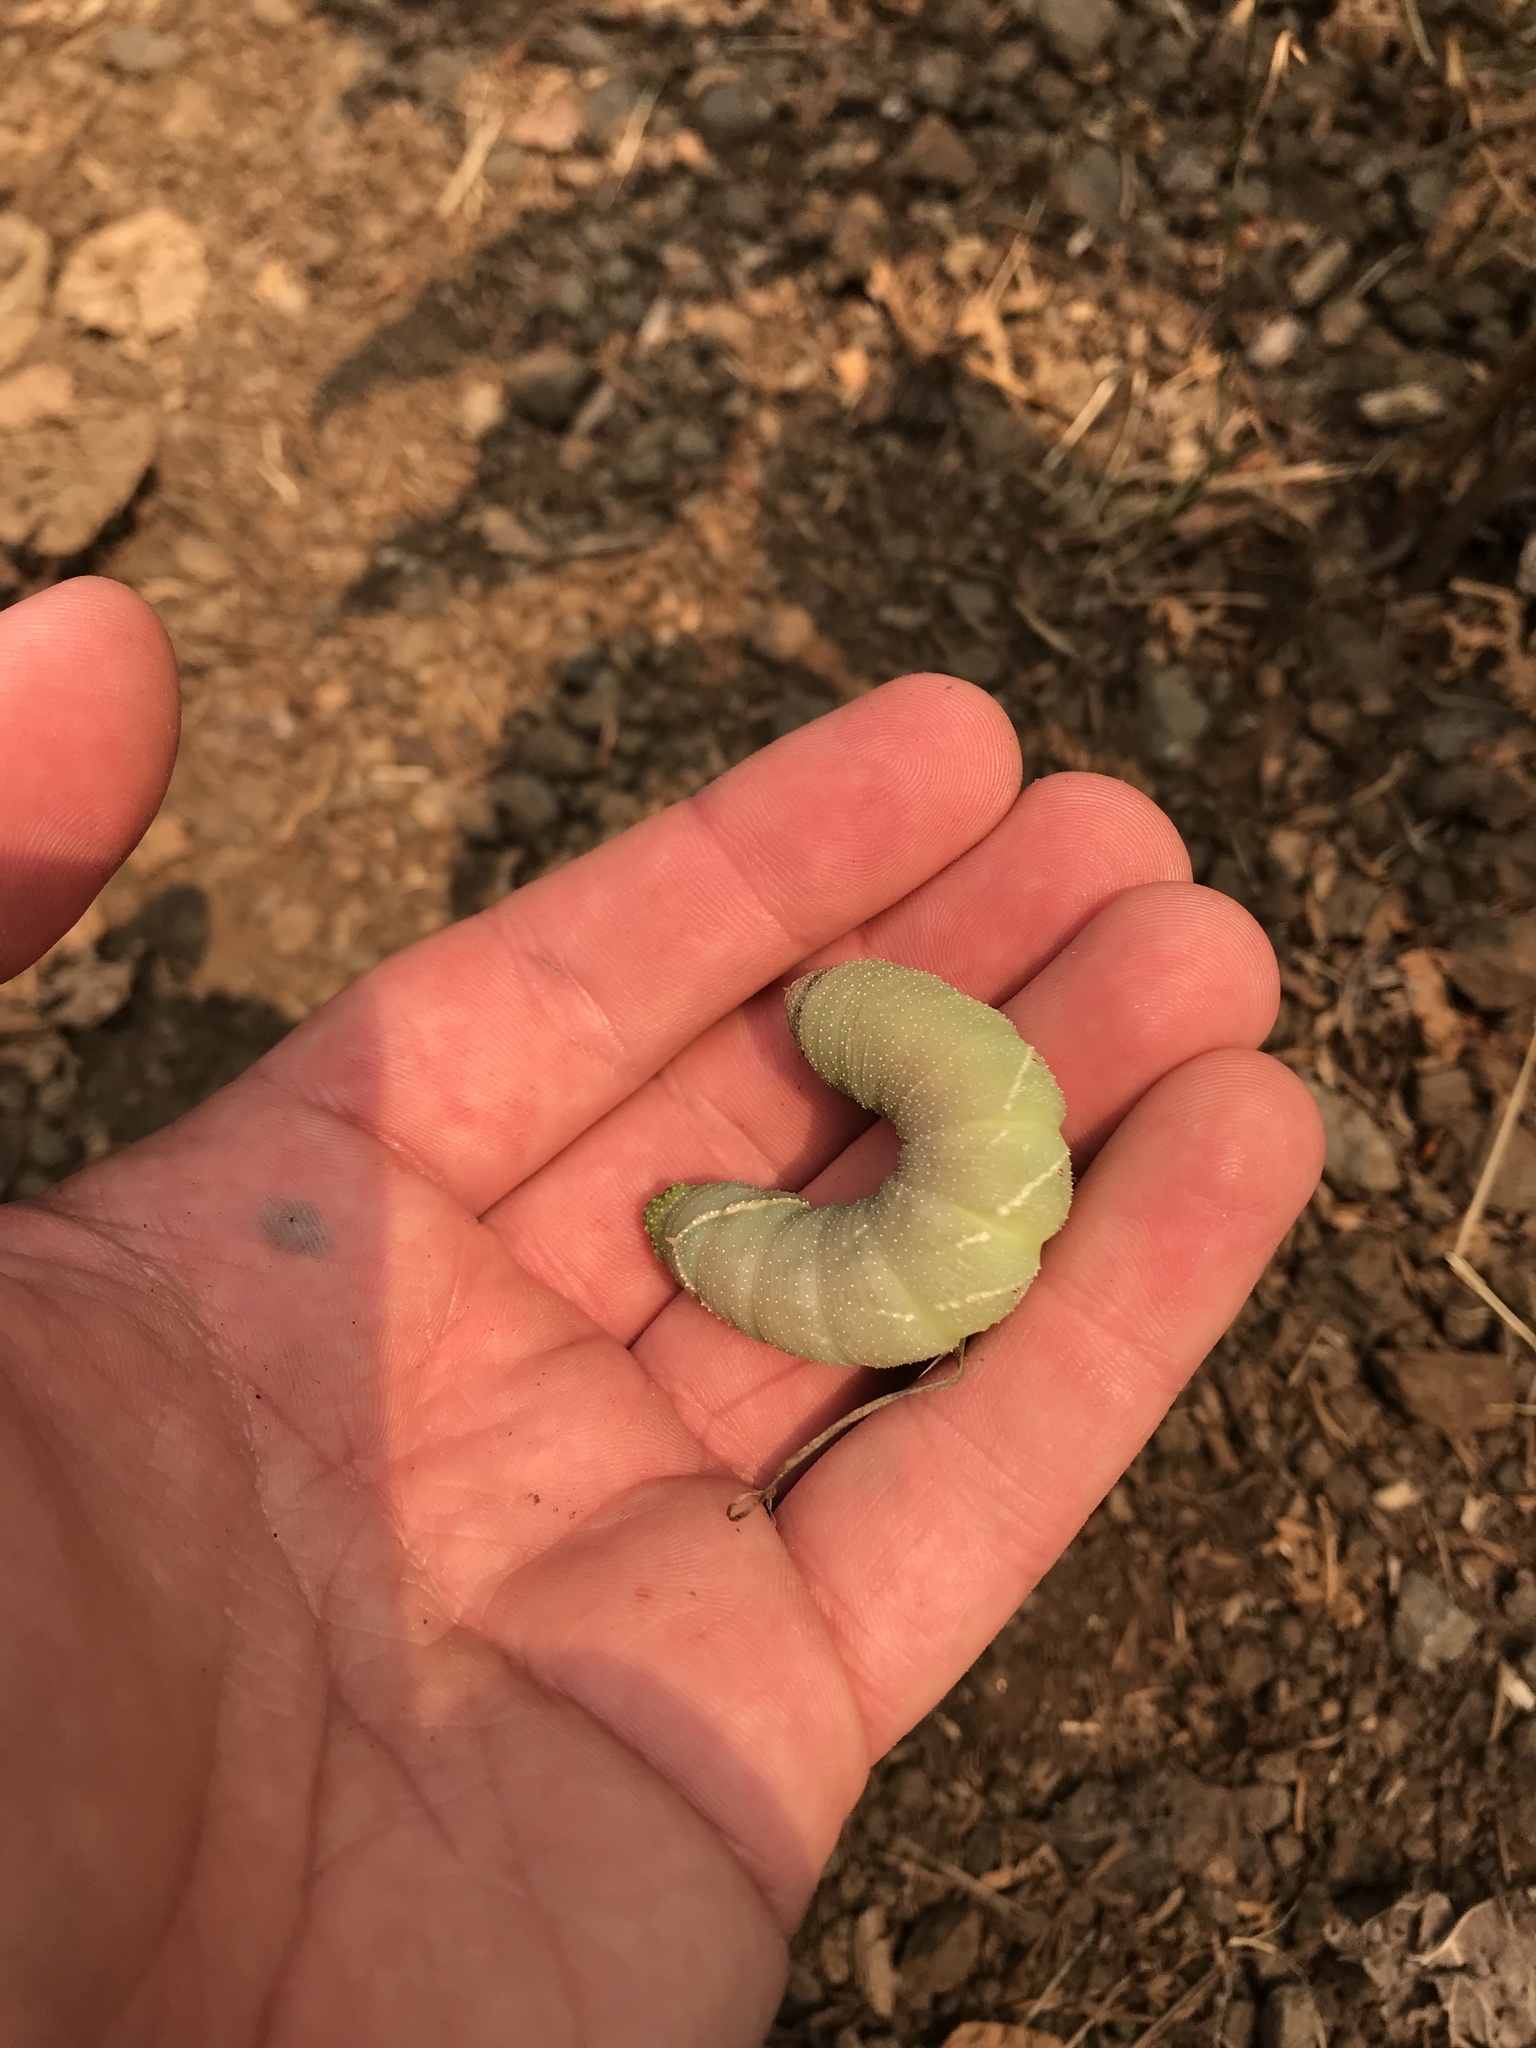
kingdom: Animalia
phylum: Arthropoda
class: Insecta
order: Lepidoptera
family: Sphingidae
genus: Pachysphinx
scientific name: Pachysphinx modesta
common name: Big poplar sphinx
